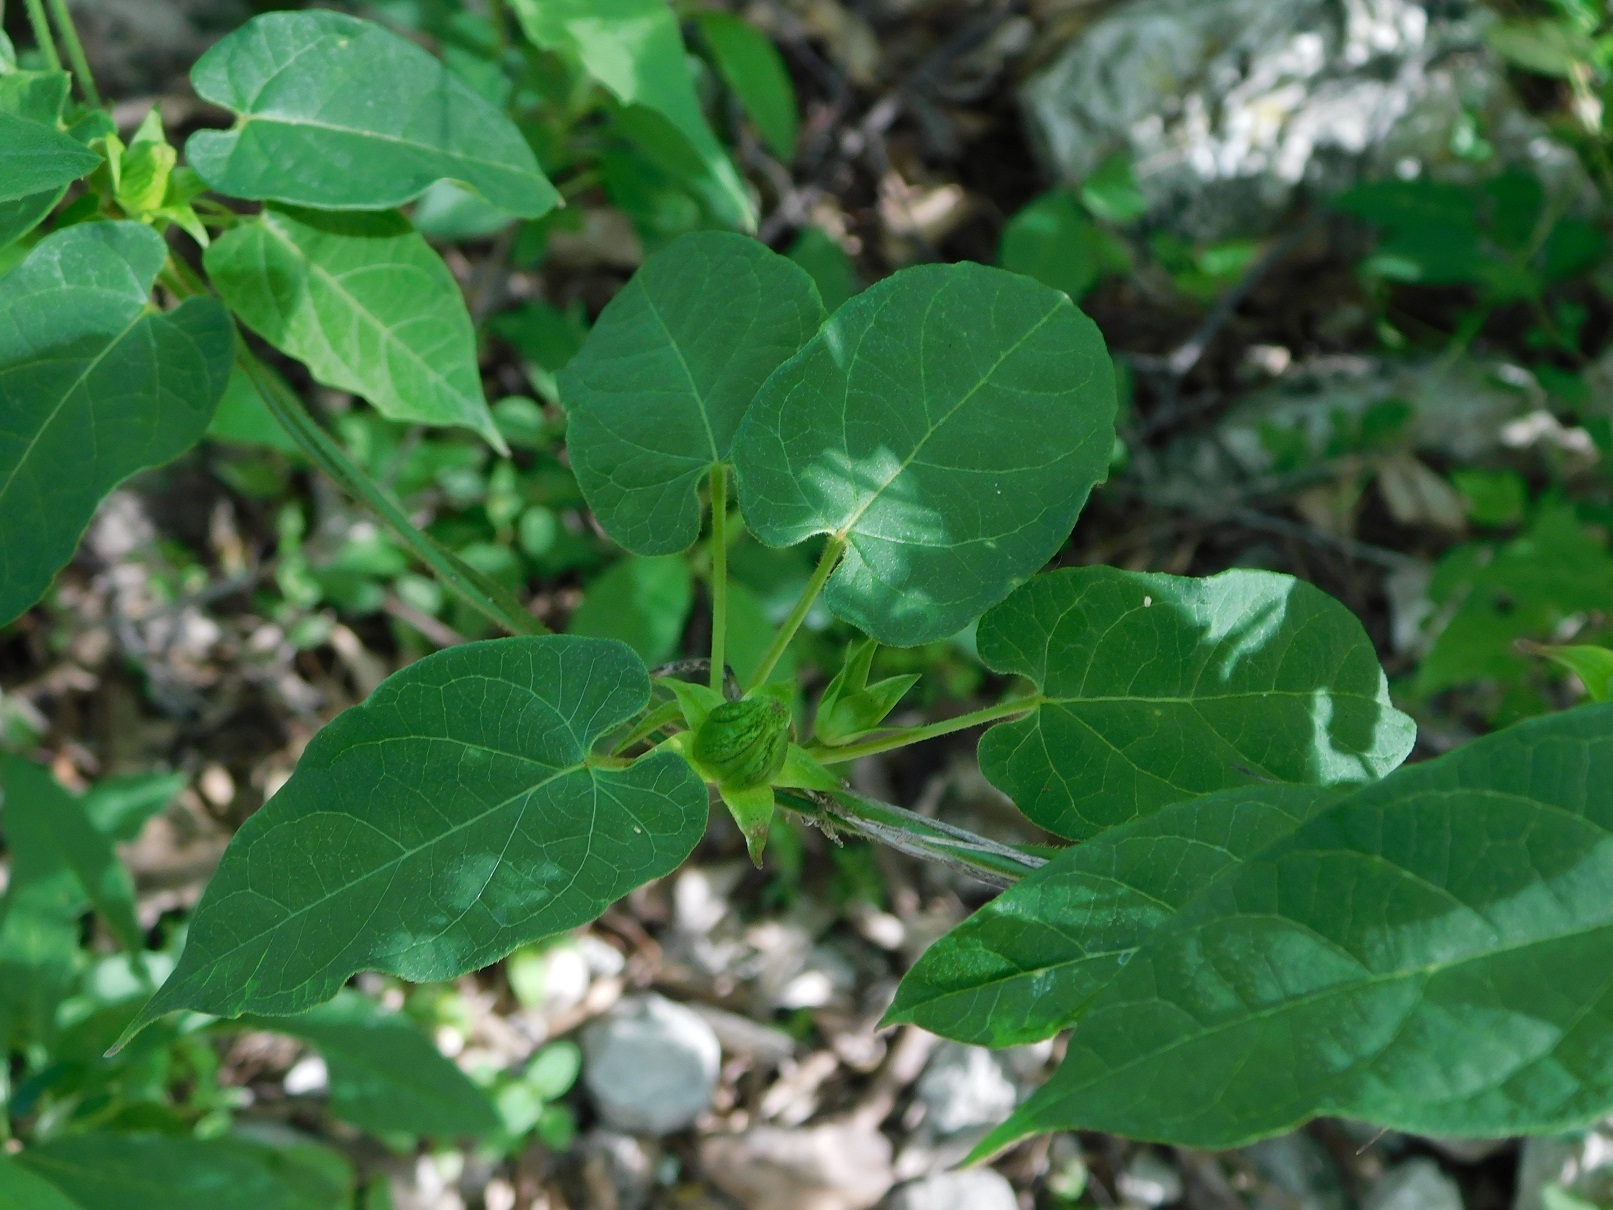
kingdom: Plantae
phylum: Tracheophyta
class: Magnoliopsida
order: Gentianales
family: Apocynaceae
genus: Gonolobus
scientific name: Gonolobus incerianus
